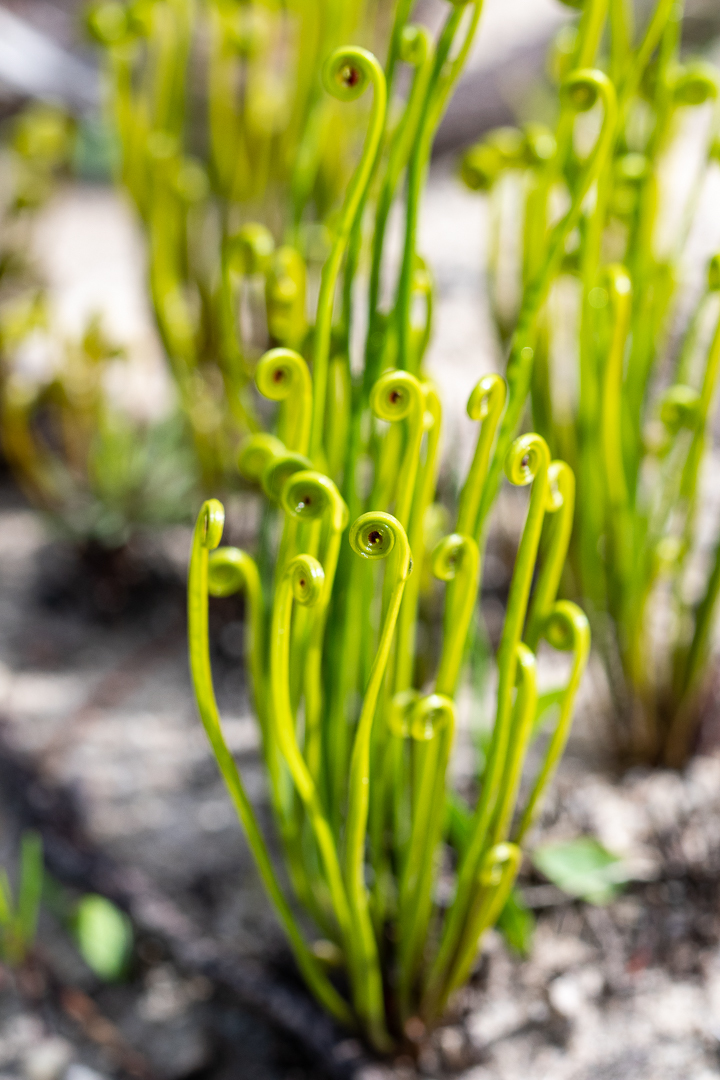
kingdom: Plantae
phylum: Tracheophyta
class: Polypodiopsida
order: Schizaeales
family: Schizaeaceae
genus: Schizaea
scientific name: Schizaea pectinata
